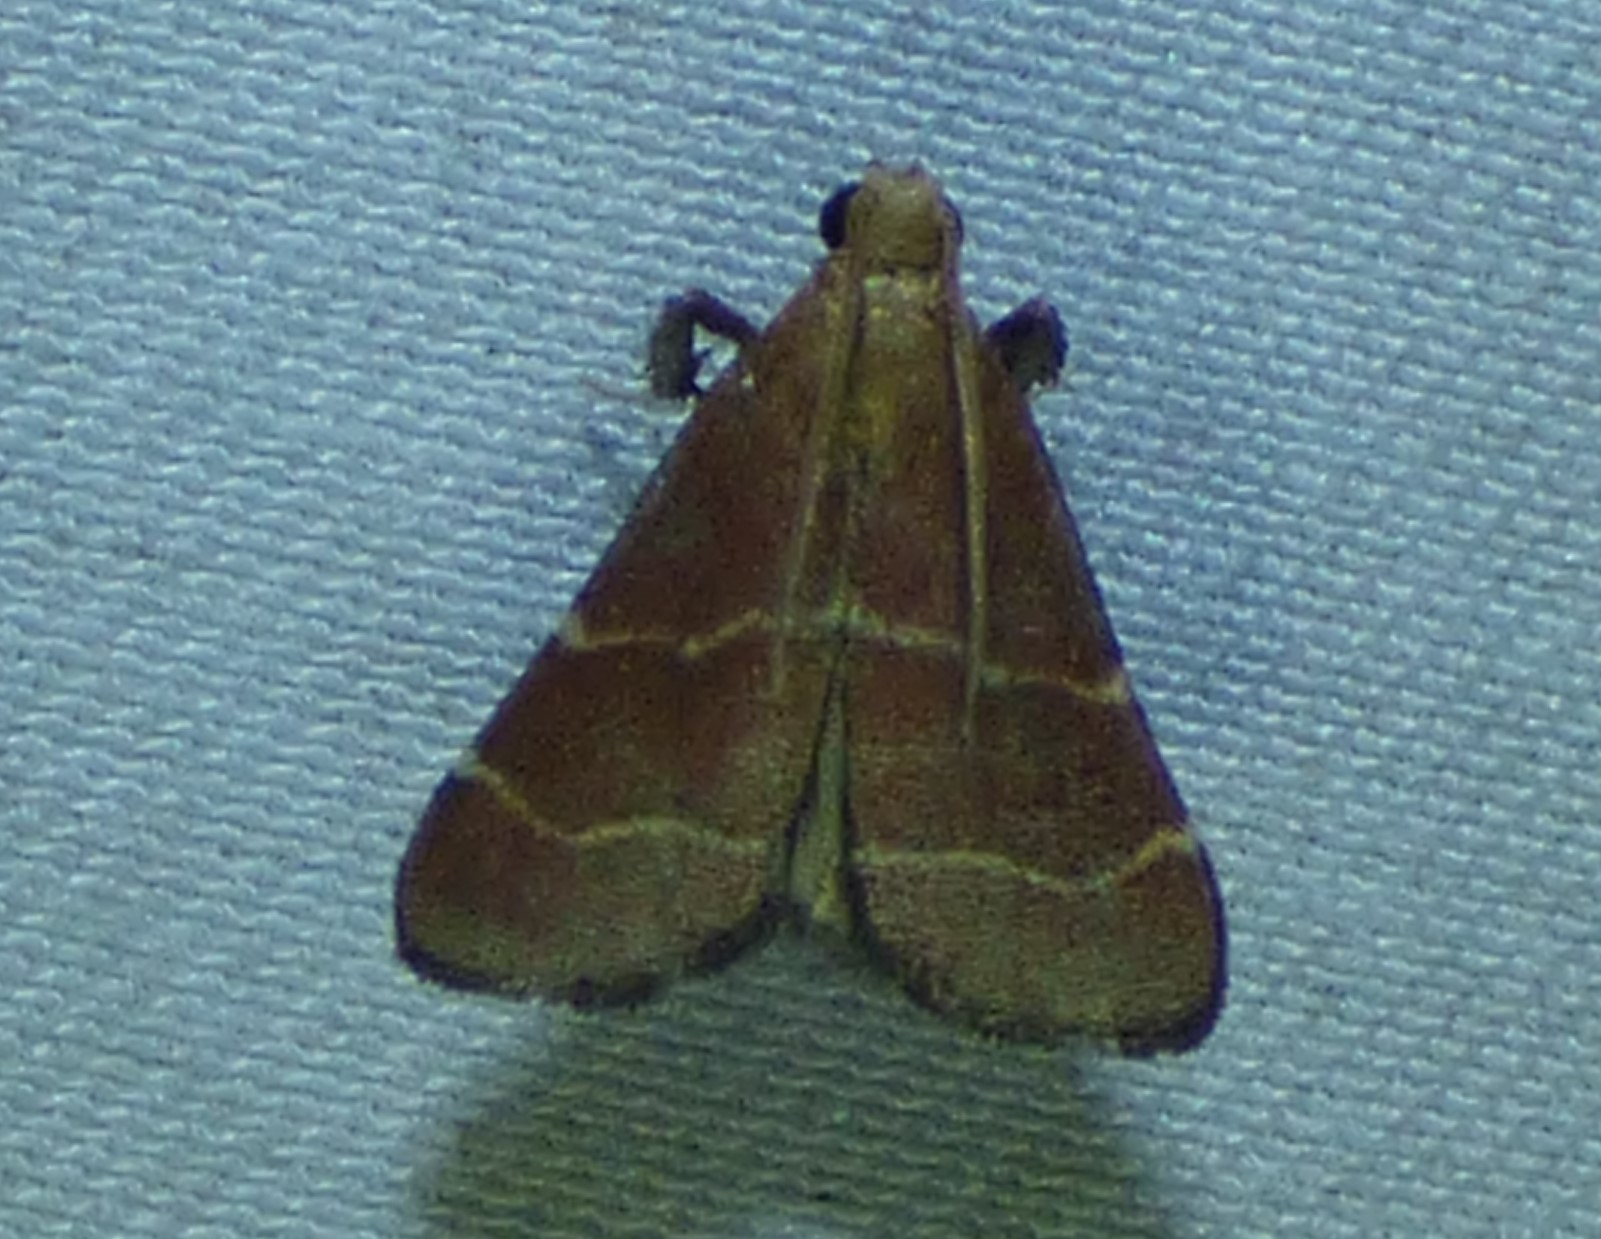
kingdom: Animalia
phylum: Arthropoda
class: Insecta
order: Lepidoptera
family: Pyralidae
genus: Arta
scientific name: Arta statalis
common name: Posturing arta moth
